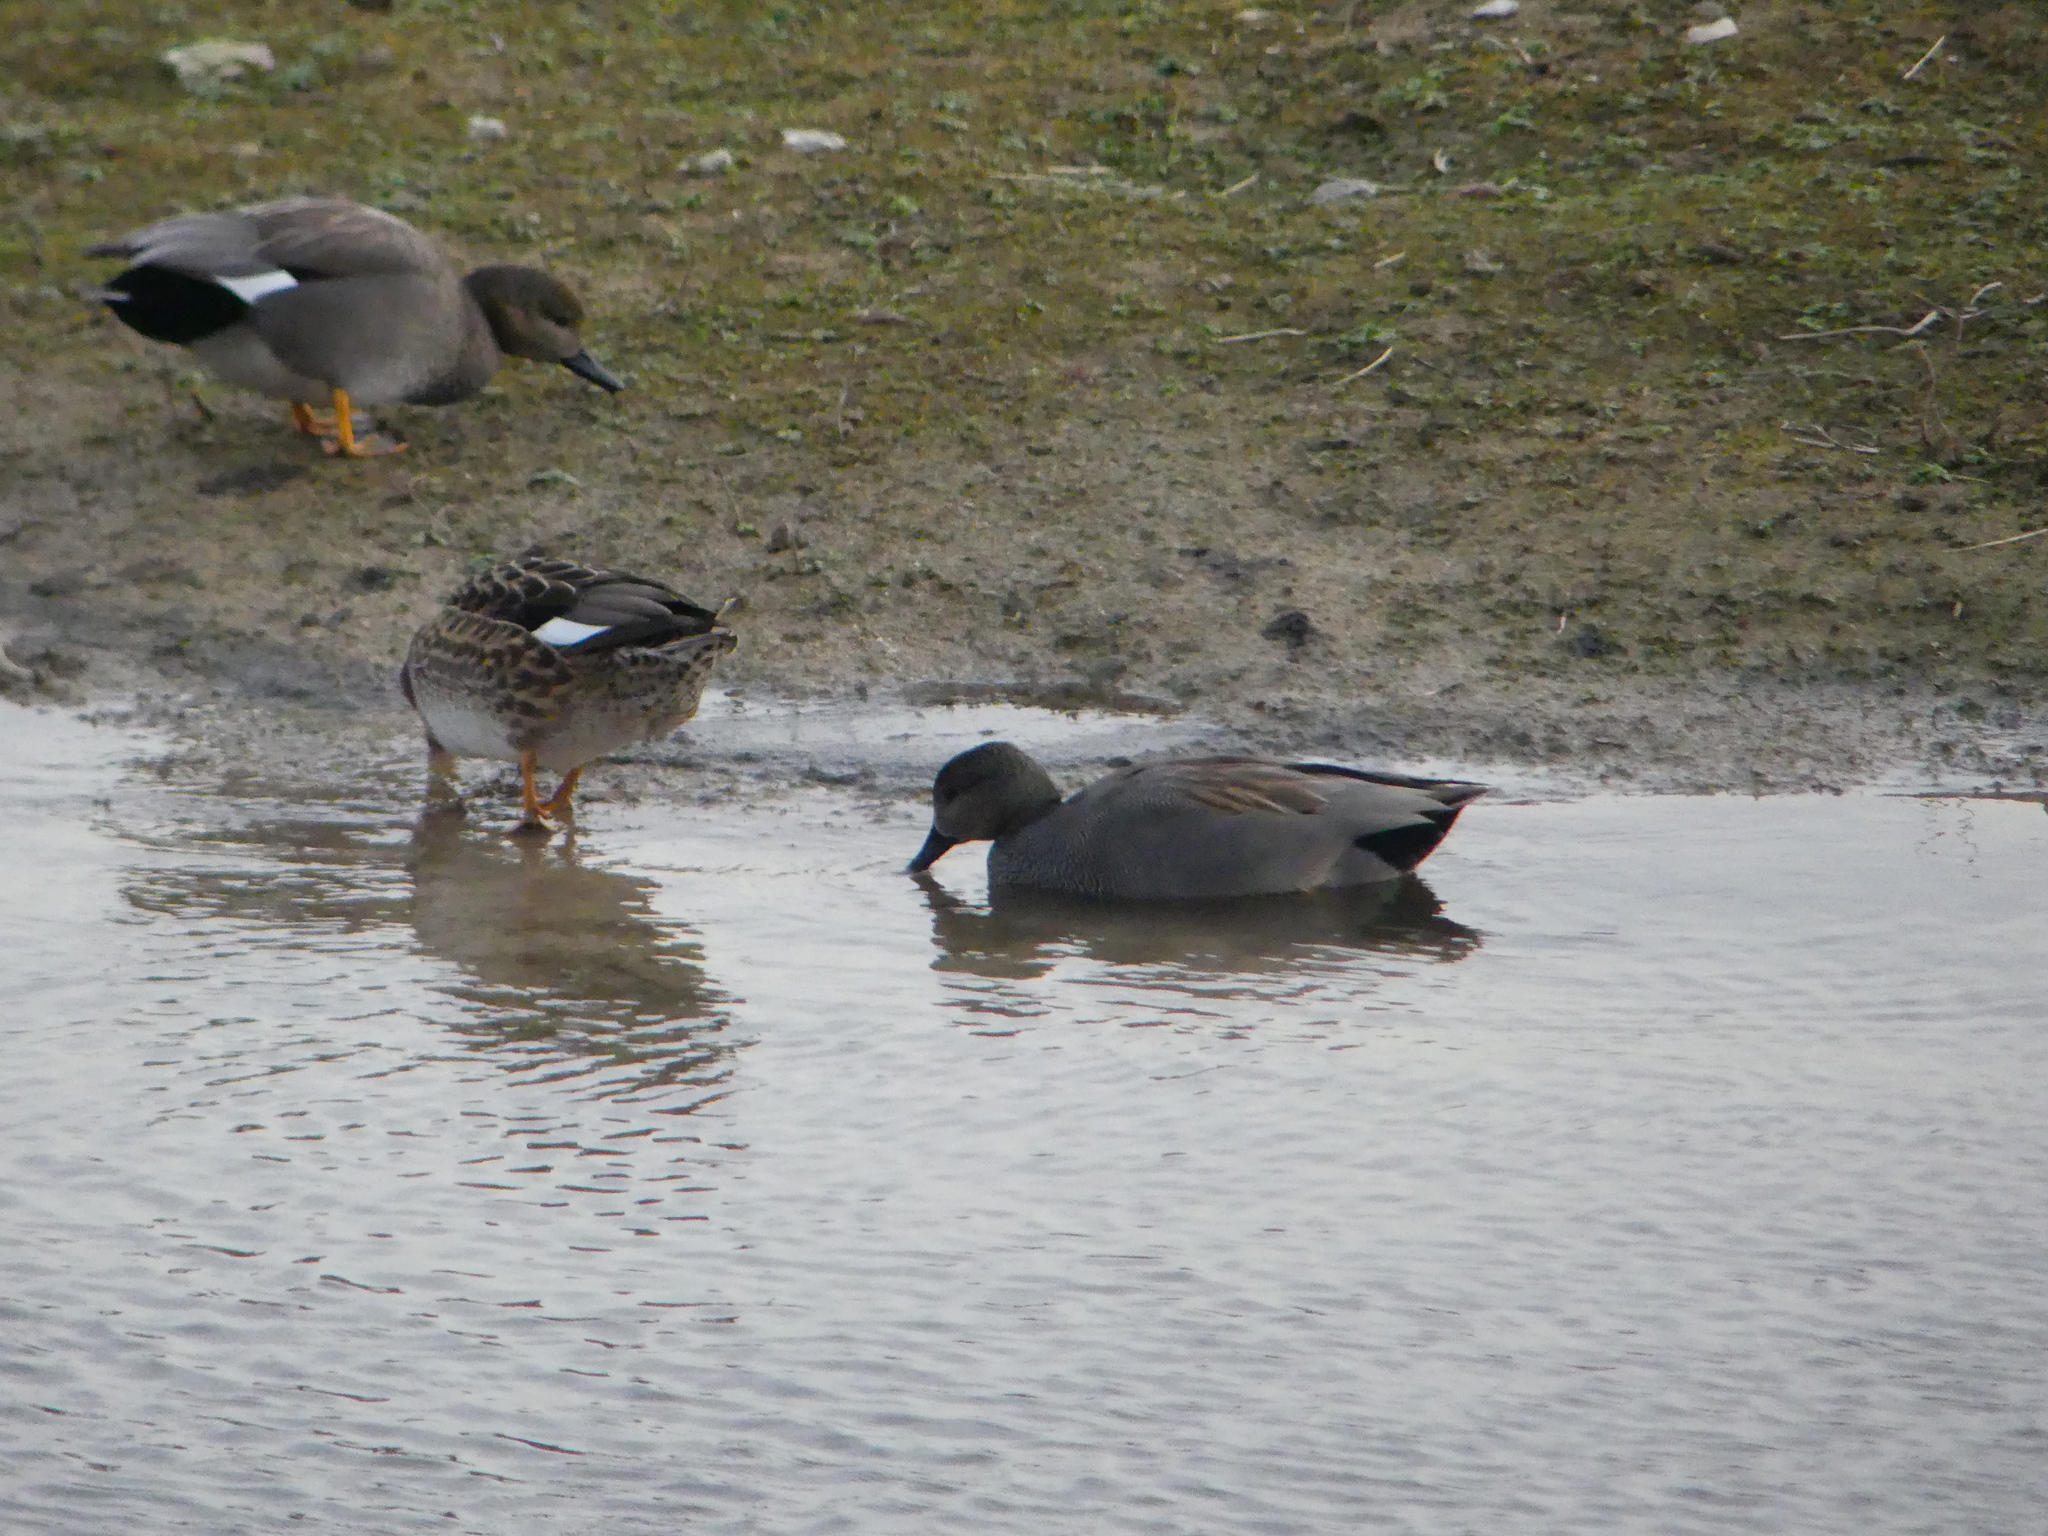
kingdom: Animalia
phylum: Chordata
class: Aves
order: Anseriformes
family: Anatidae
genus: Mareca
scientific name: Mareca strepera
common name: Gadwall
